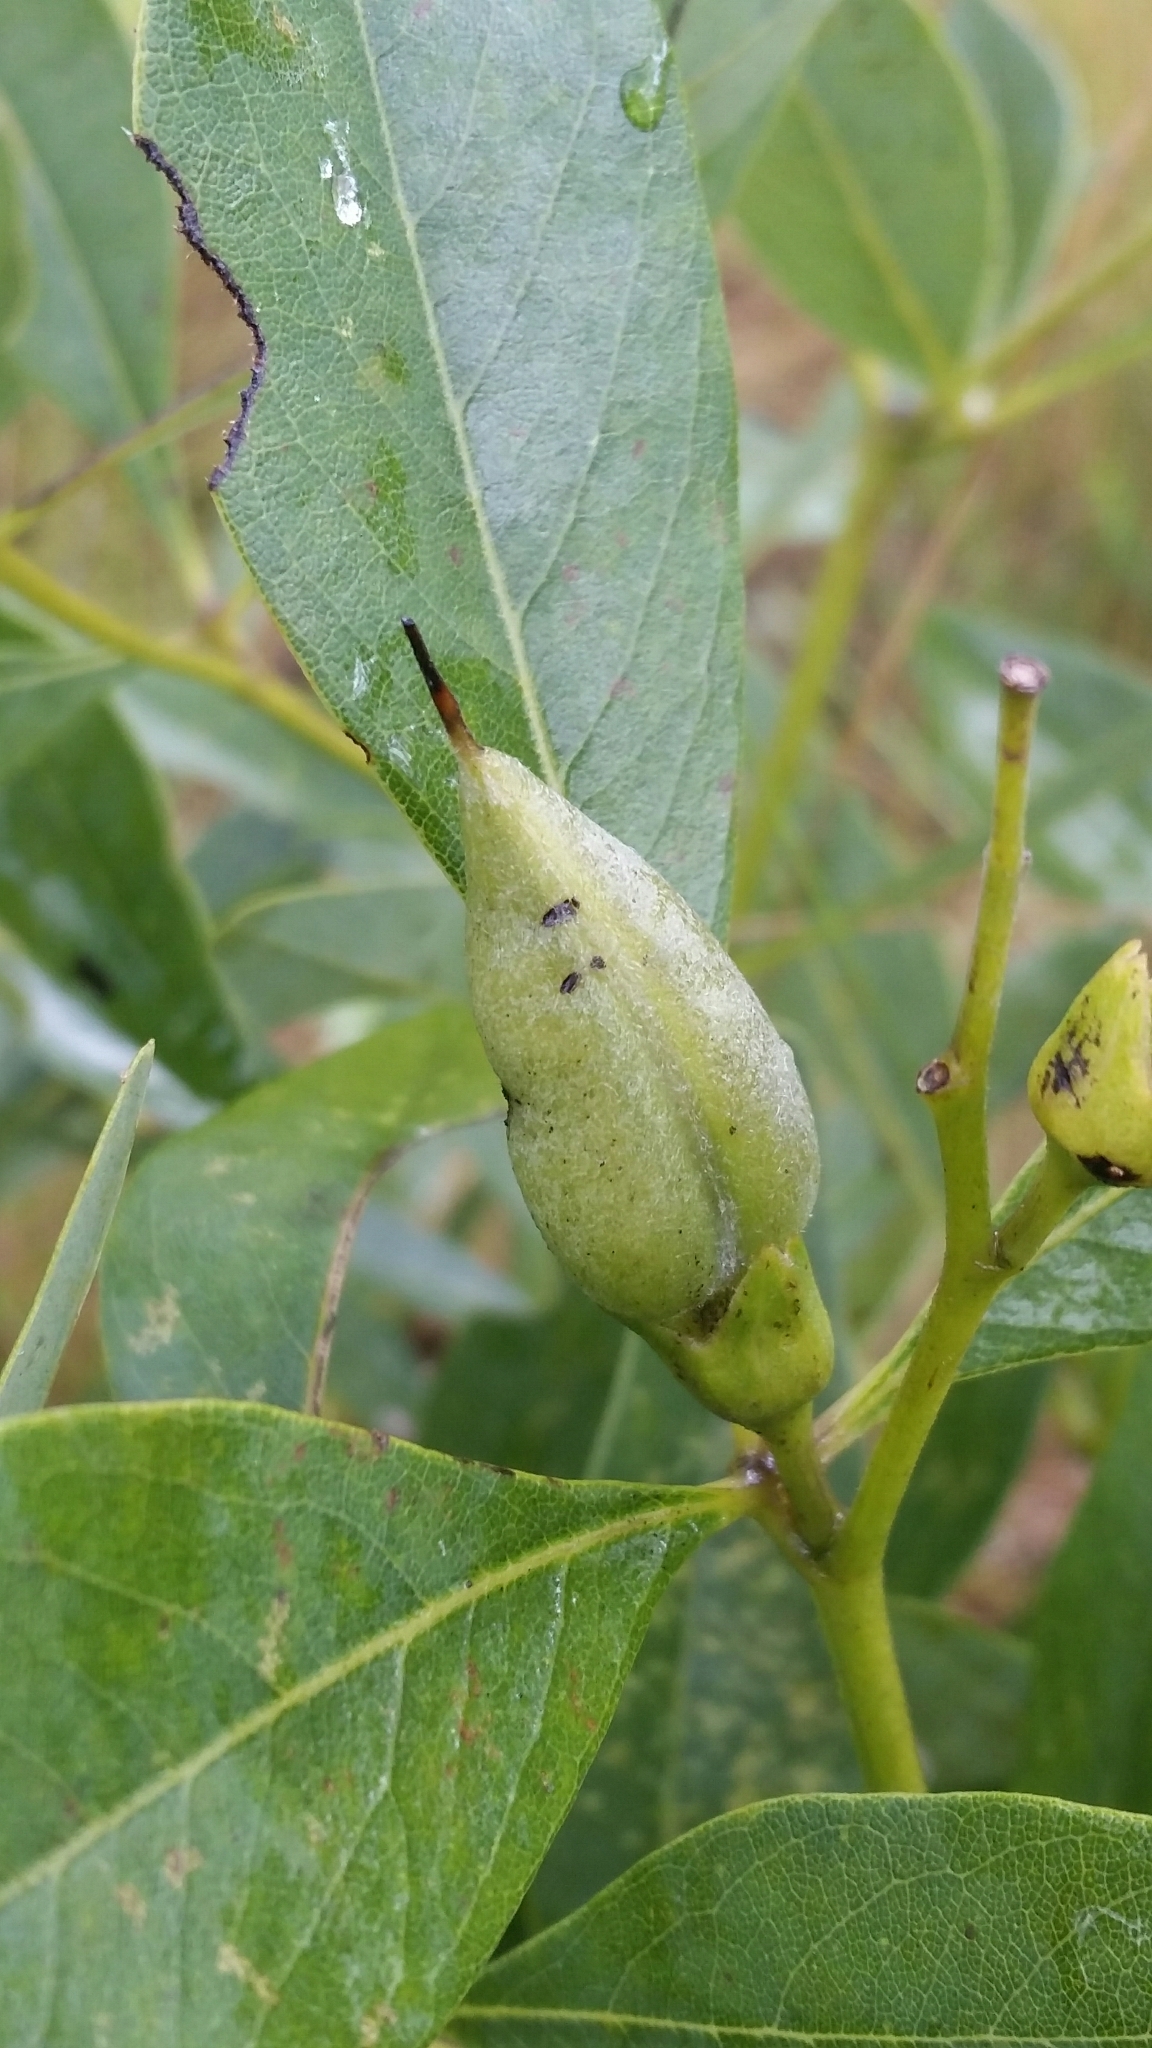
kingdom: Plantae
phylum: Tracheophyta
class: Magnoliopsida
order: Fabales
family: Fabaceae
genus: Baptisia
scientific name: Baptisia lanceolata
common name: Gopherweed
